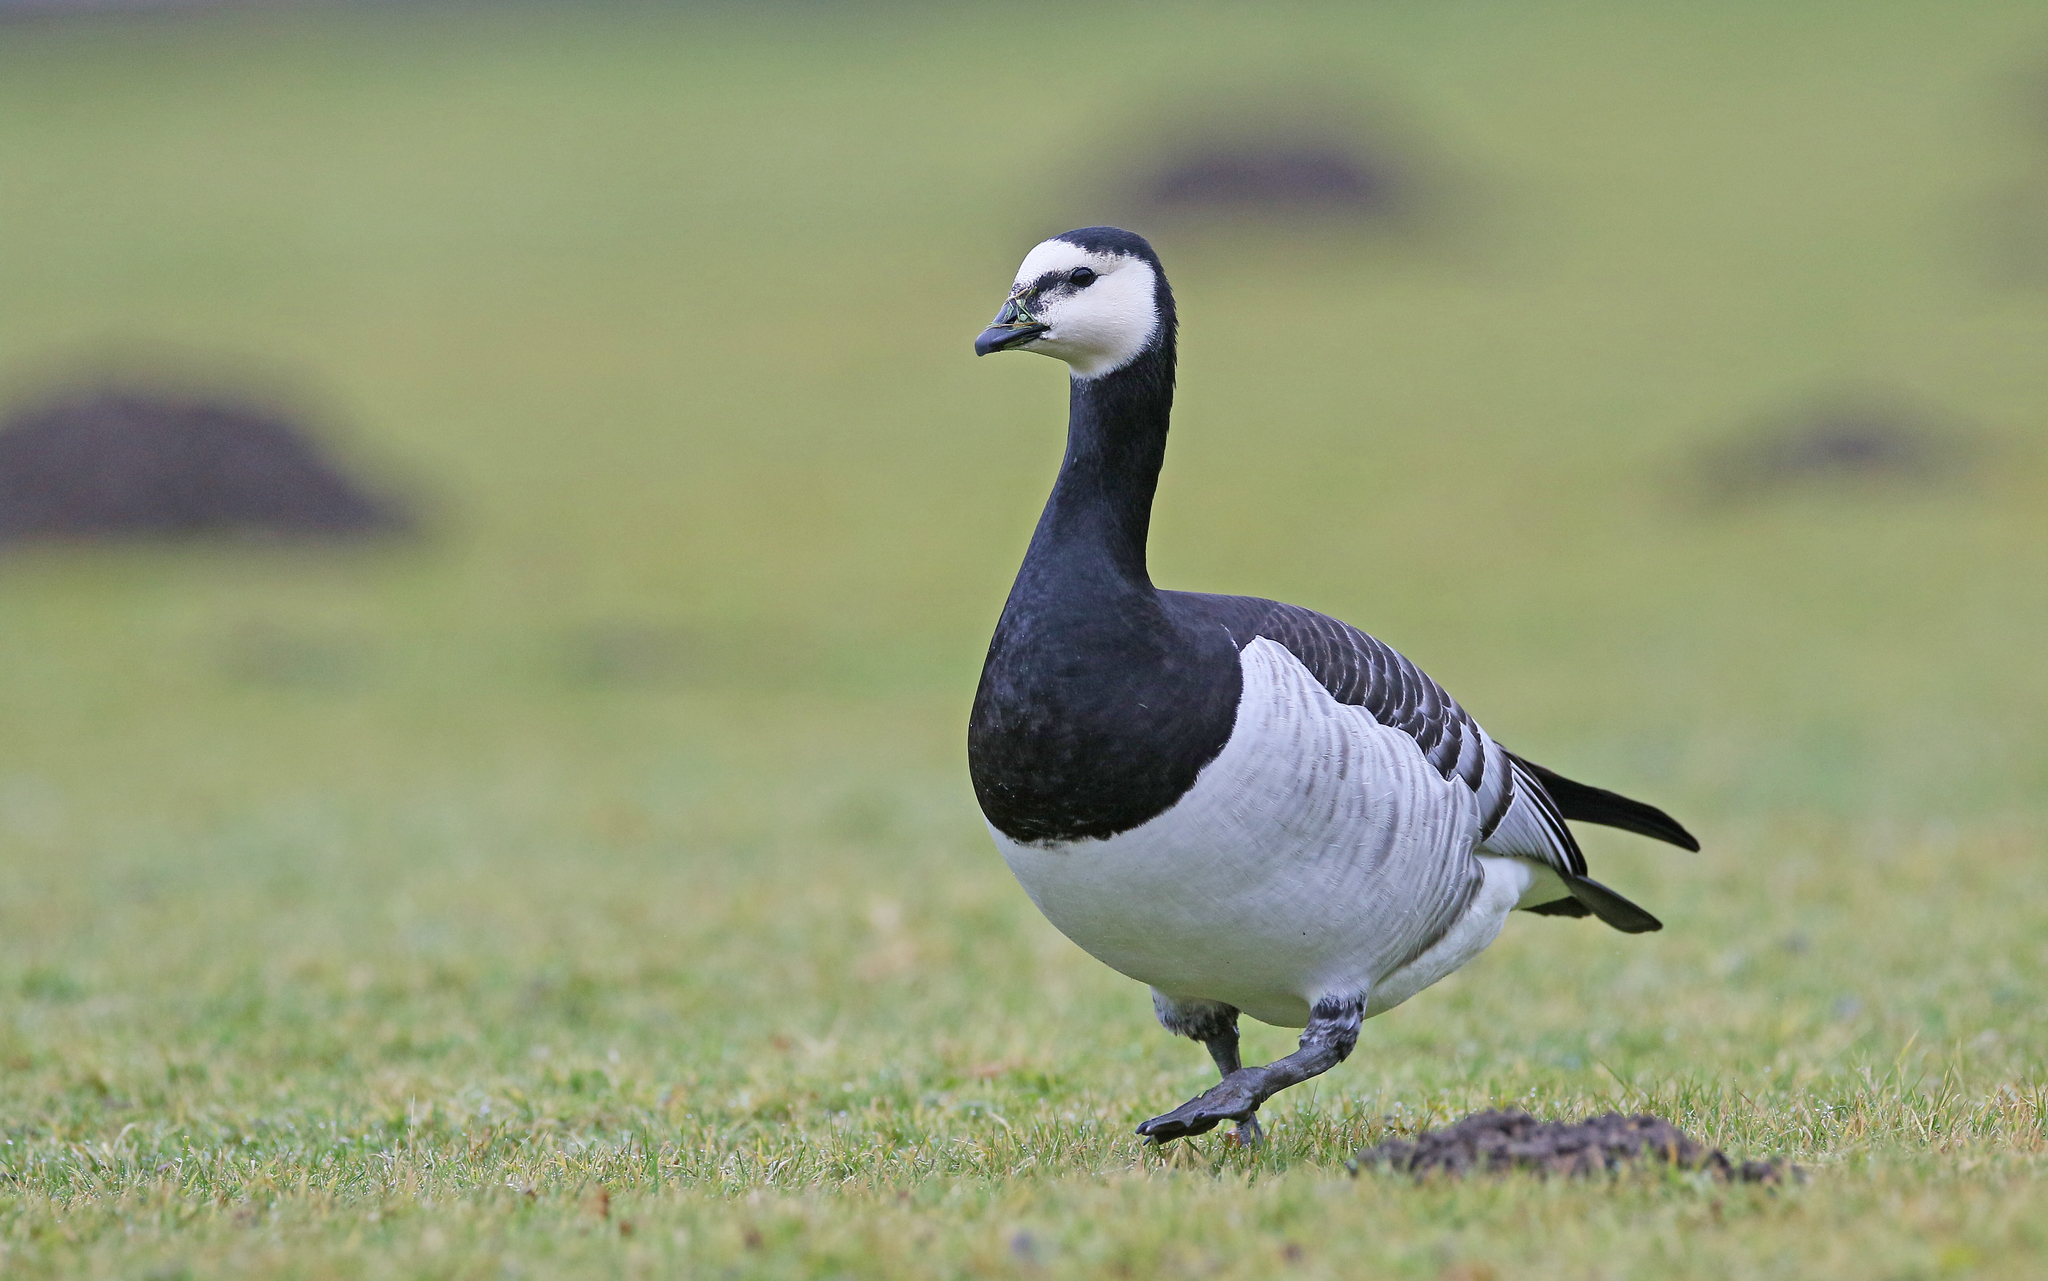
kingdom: Animalia
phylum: Chordata
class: Aves
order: Anseriformes
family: Anatidae
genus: Branta
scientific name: Branta leucopsis
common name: Barnacle goose
